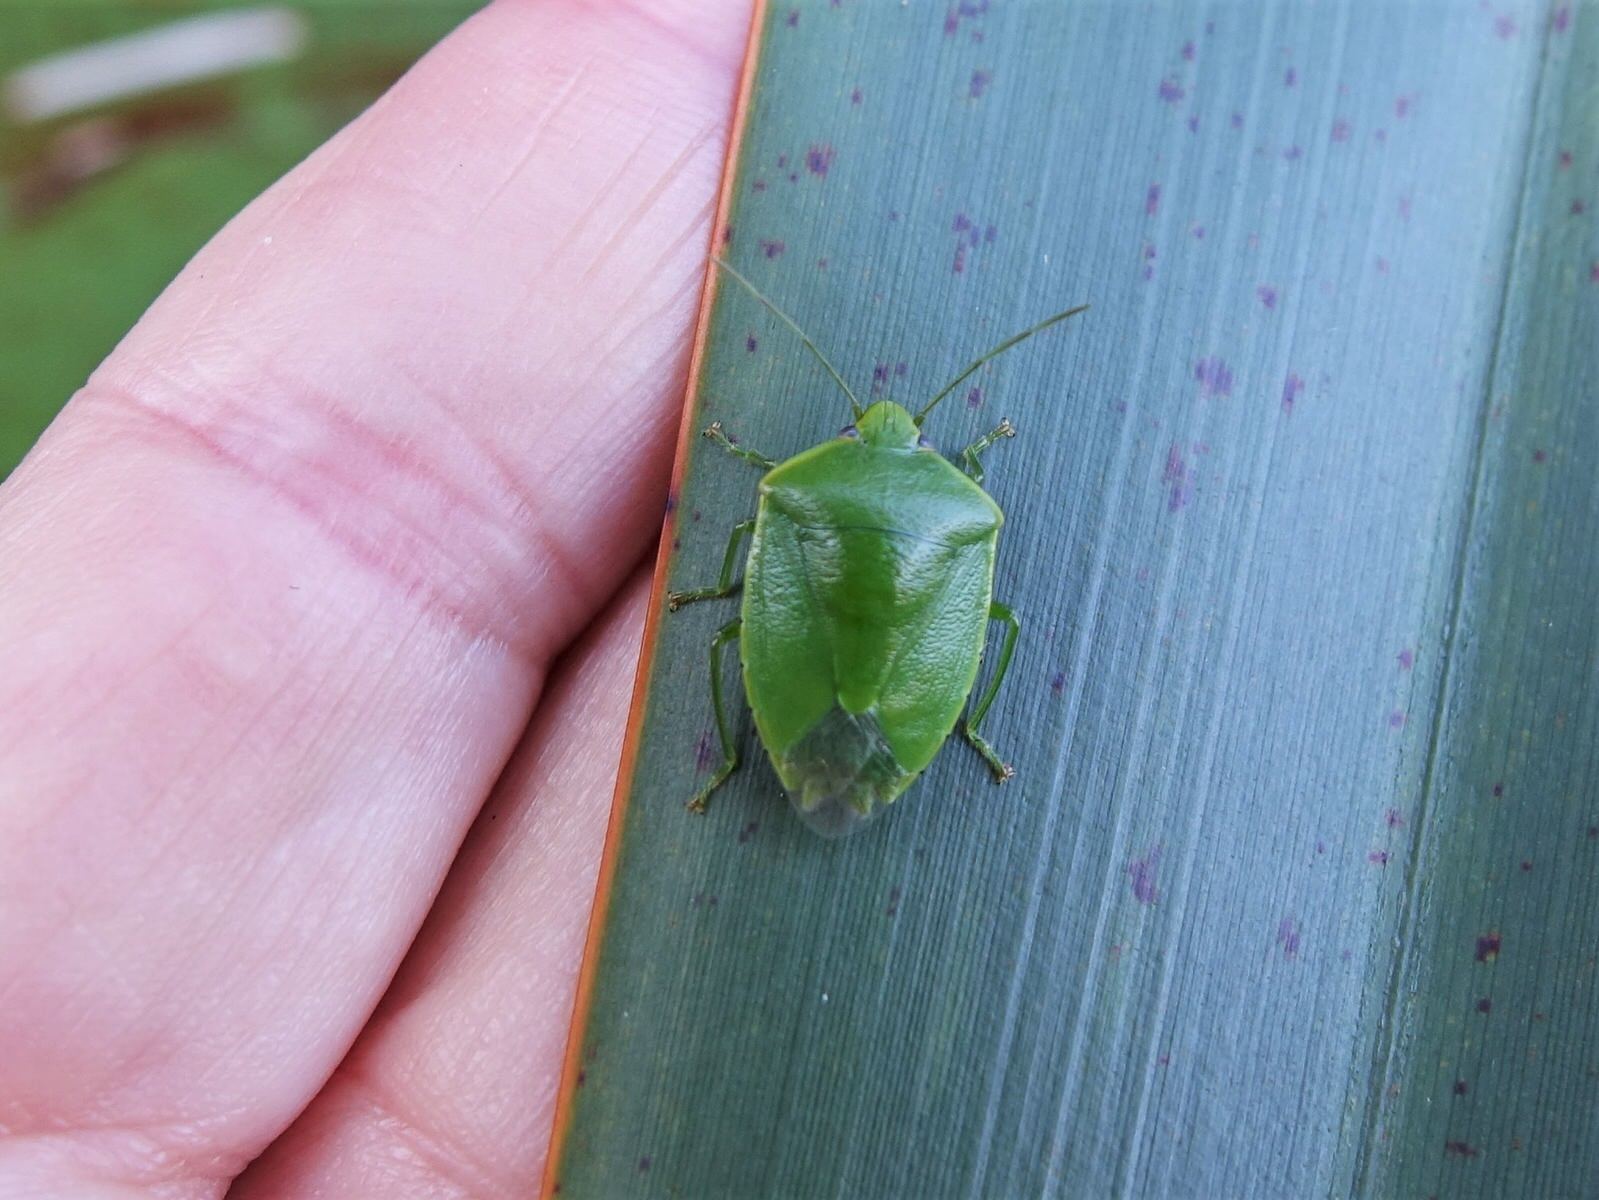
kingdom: Animalia
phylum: Arthropoda
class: Insecta
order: Hemiptera
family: Pentatomidae
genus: Glaucias
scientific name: Glaucias amyota
